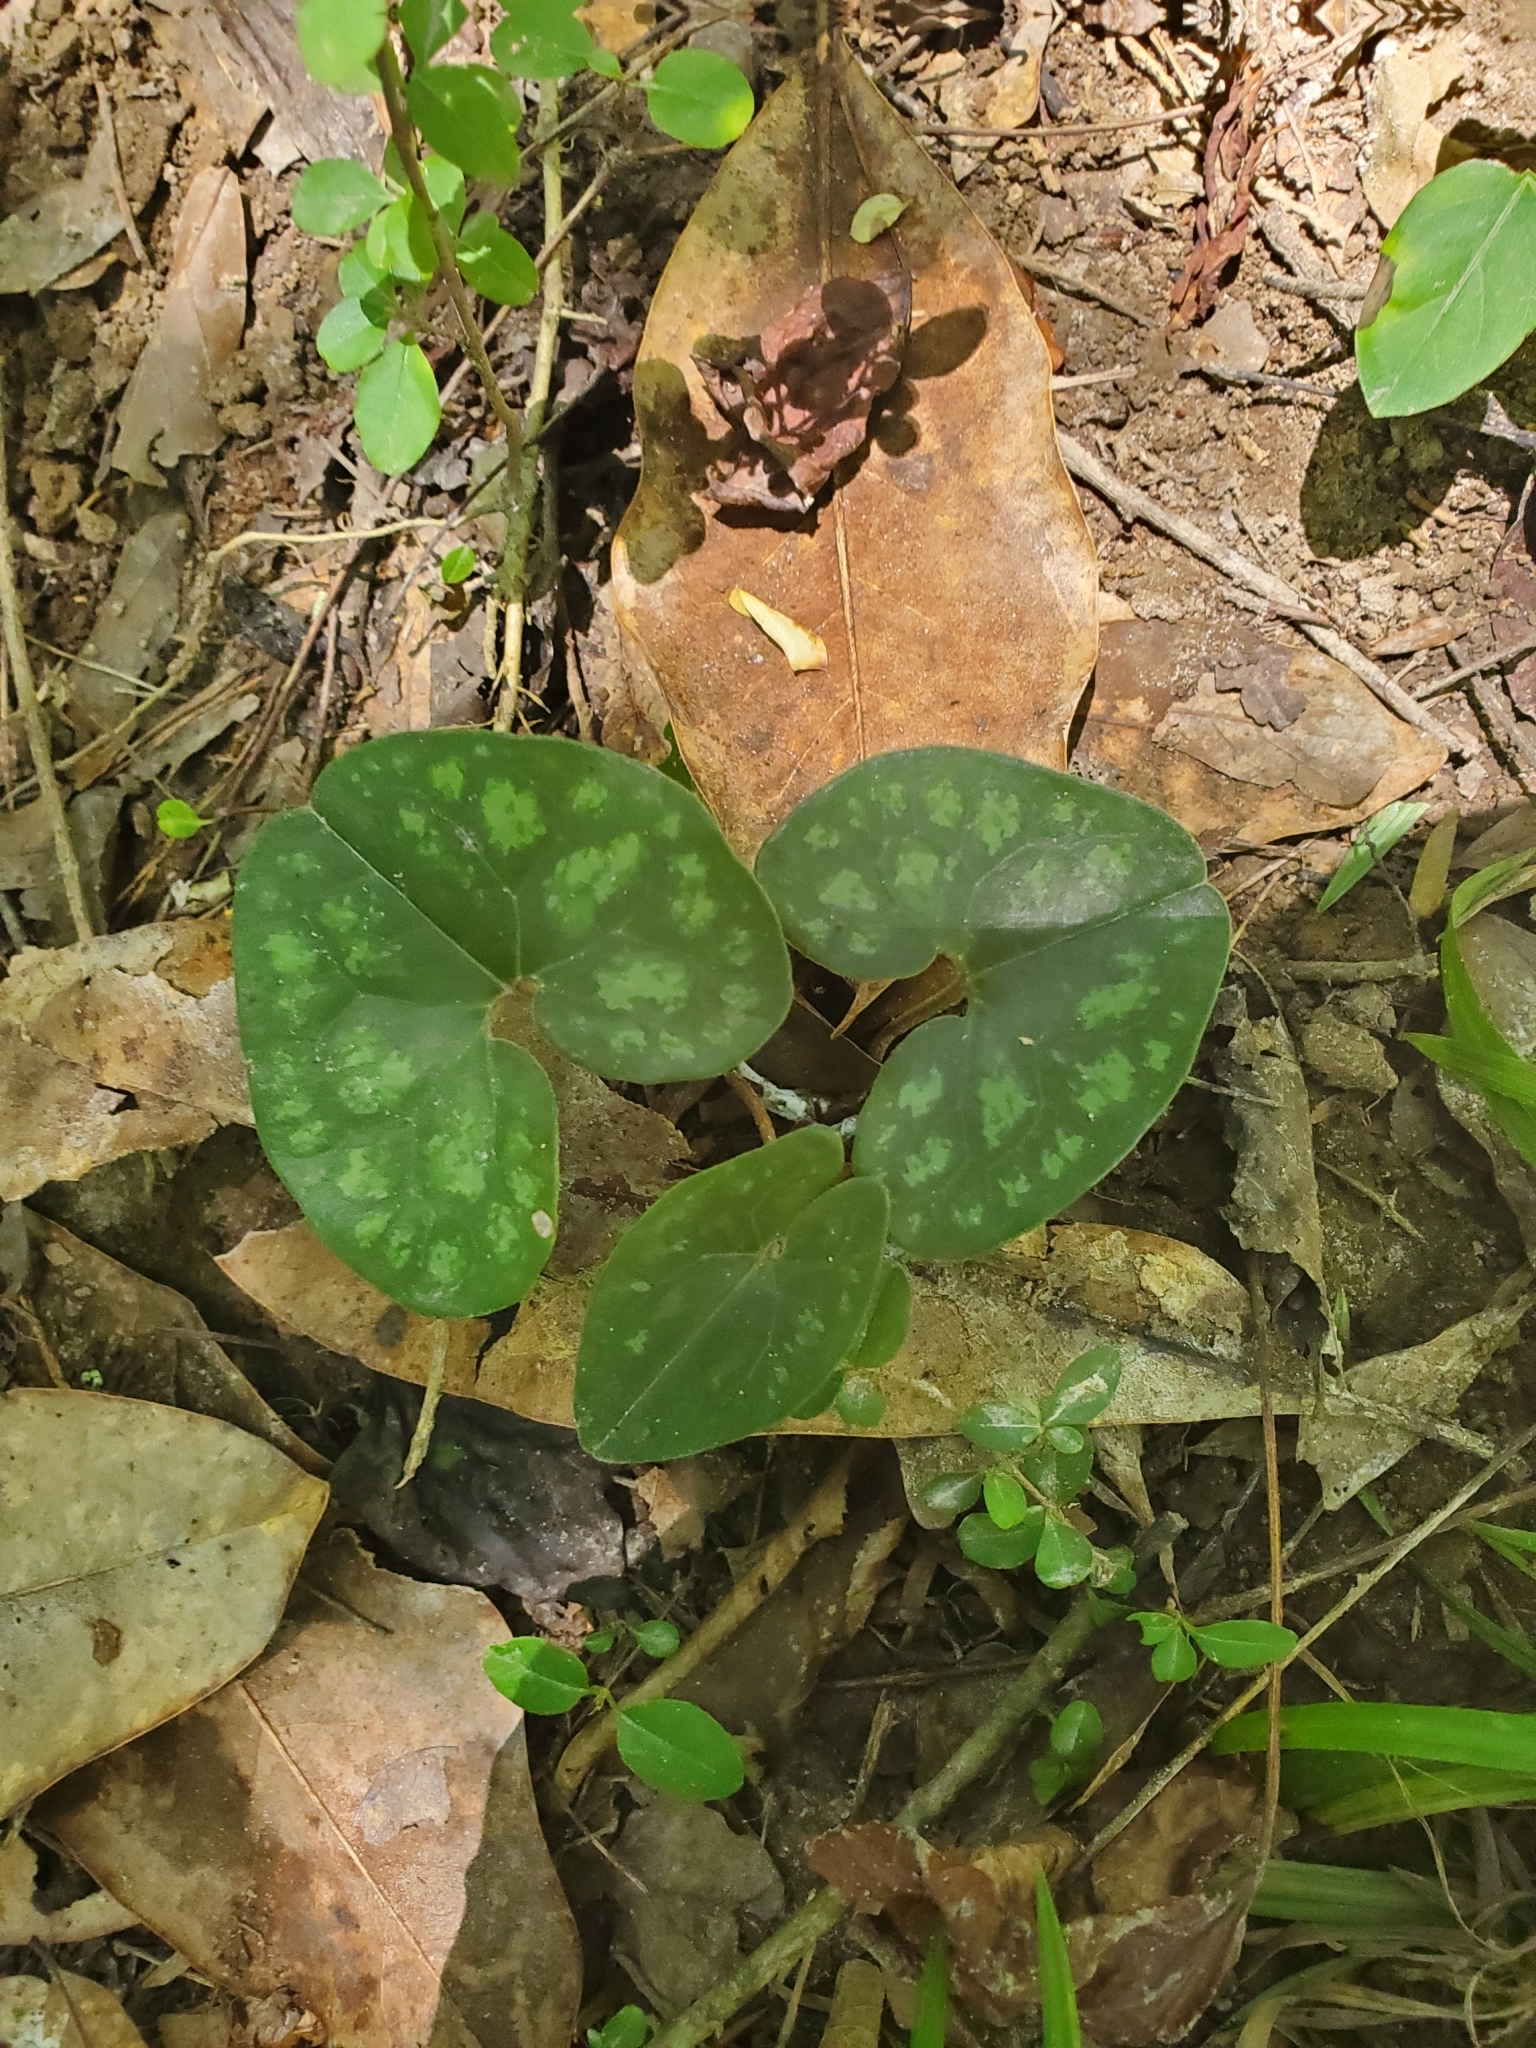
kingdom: Plantae
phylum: Tracheophyta
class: Magnoliopsida
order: Piperales
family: Aristolochiaceae
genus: Hexastylis
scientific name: Hexastylis arifolia
